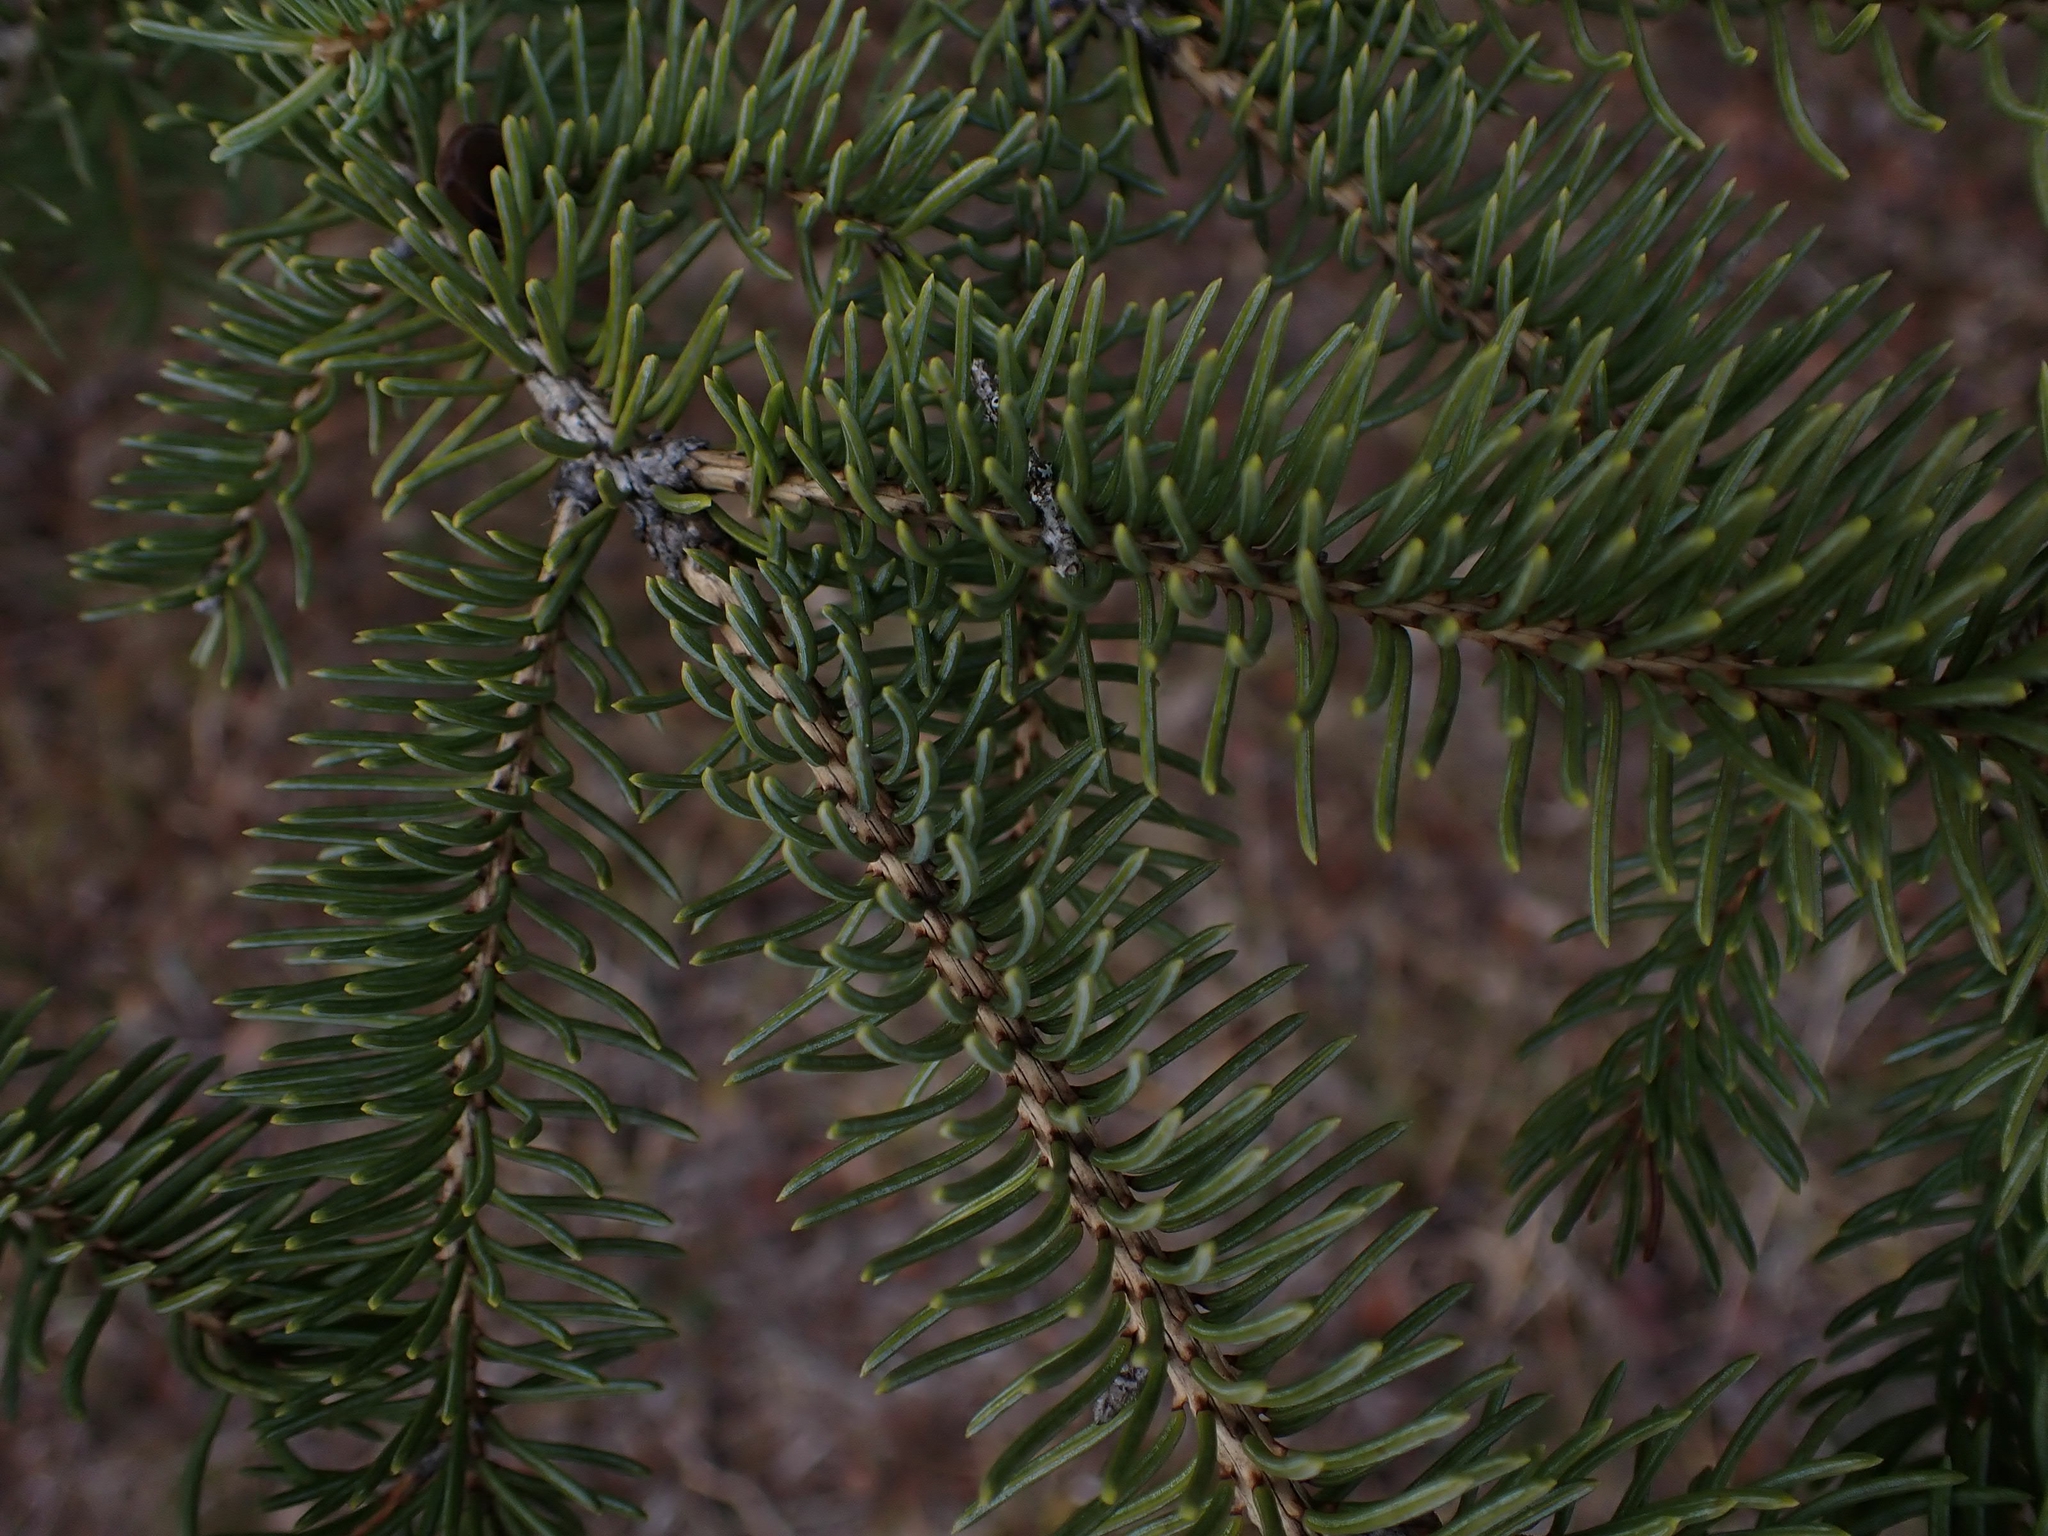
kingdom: Plantae
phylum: Tracheophyta
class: Pinopsida
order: Pinales
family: Pinaceae
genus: Picea
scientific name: Picea mariana
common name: Black spruce
